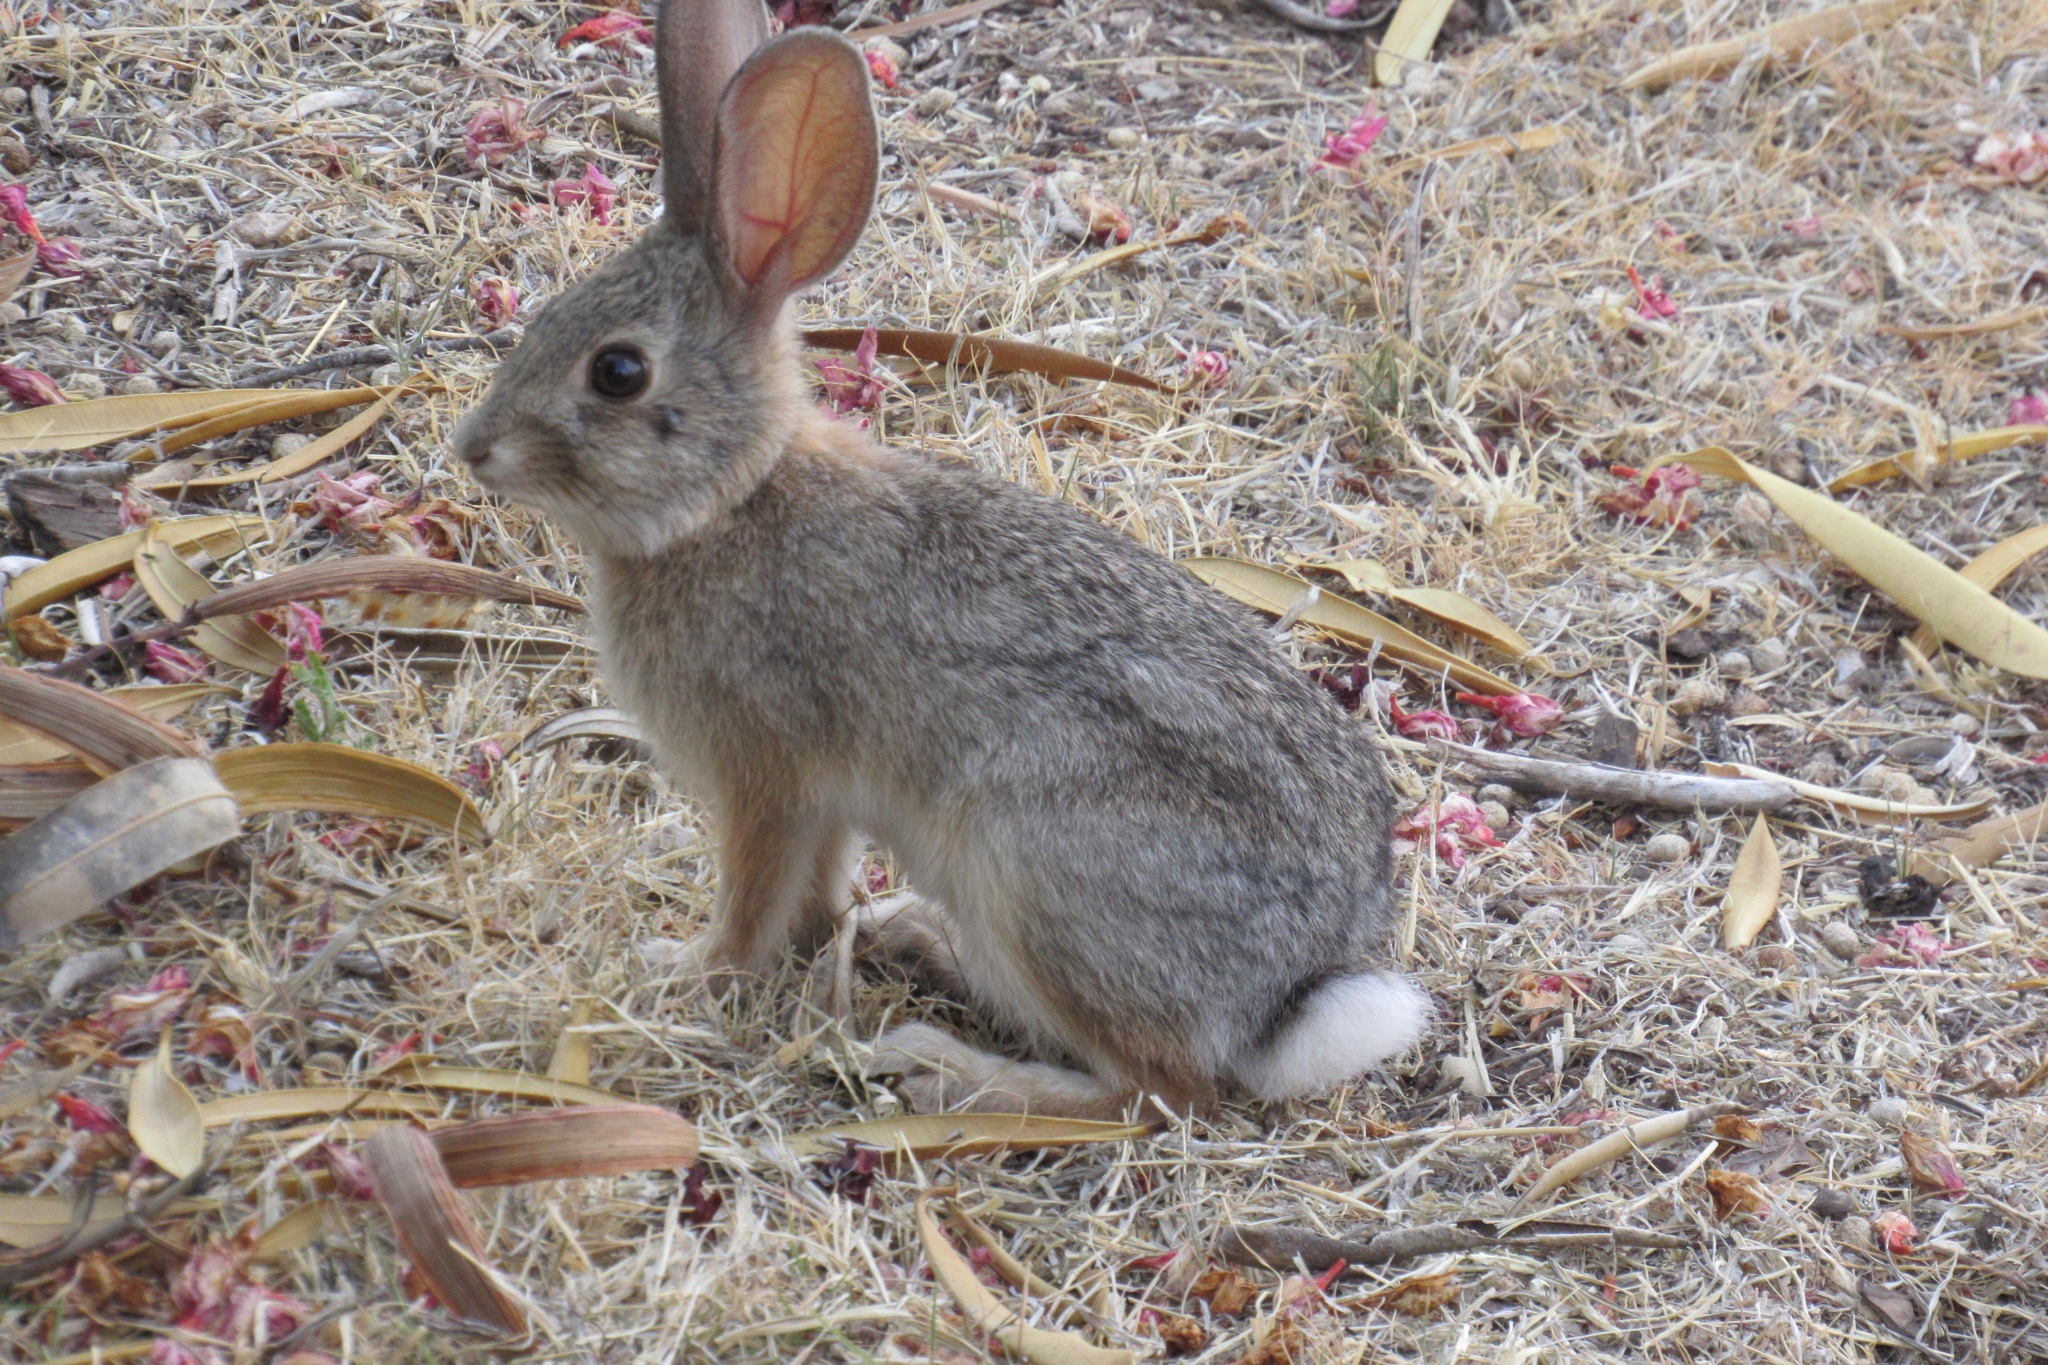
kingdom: Animalia
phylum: Chordata
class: Mammalia
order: Lagomorpha
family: Leporidae
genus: Sylvilagus
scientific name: Sylvilagus audubonii
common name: Desert cottontail
